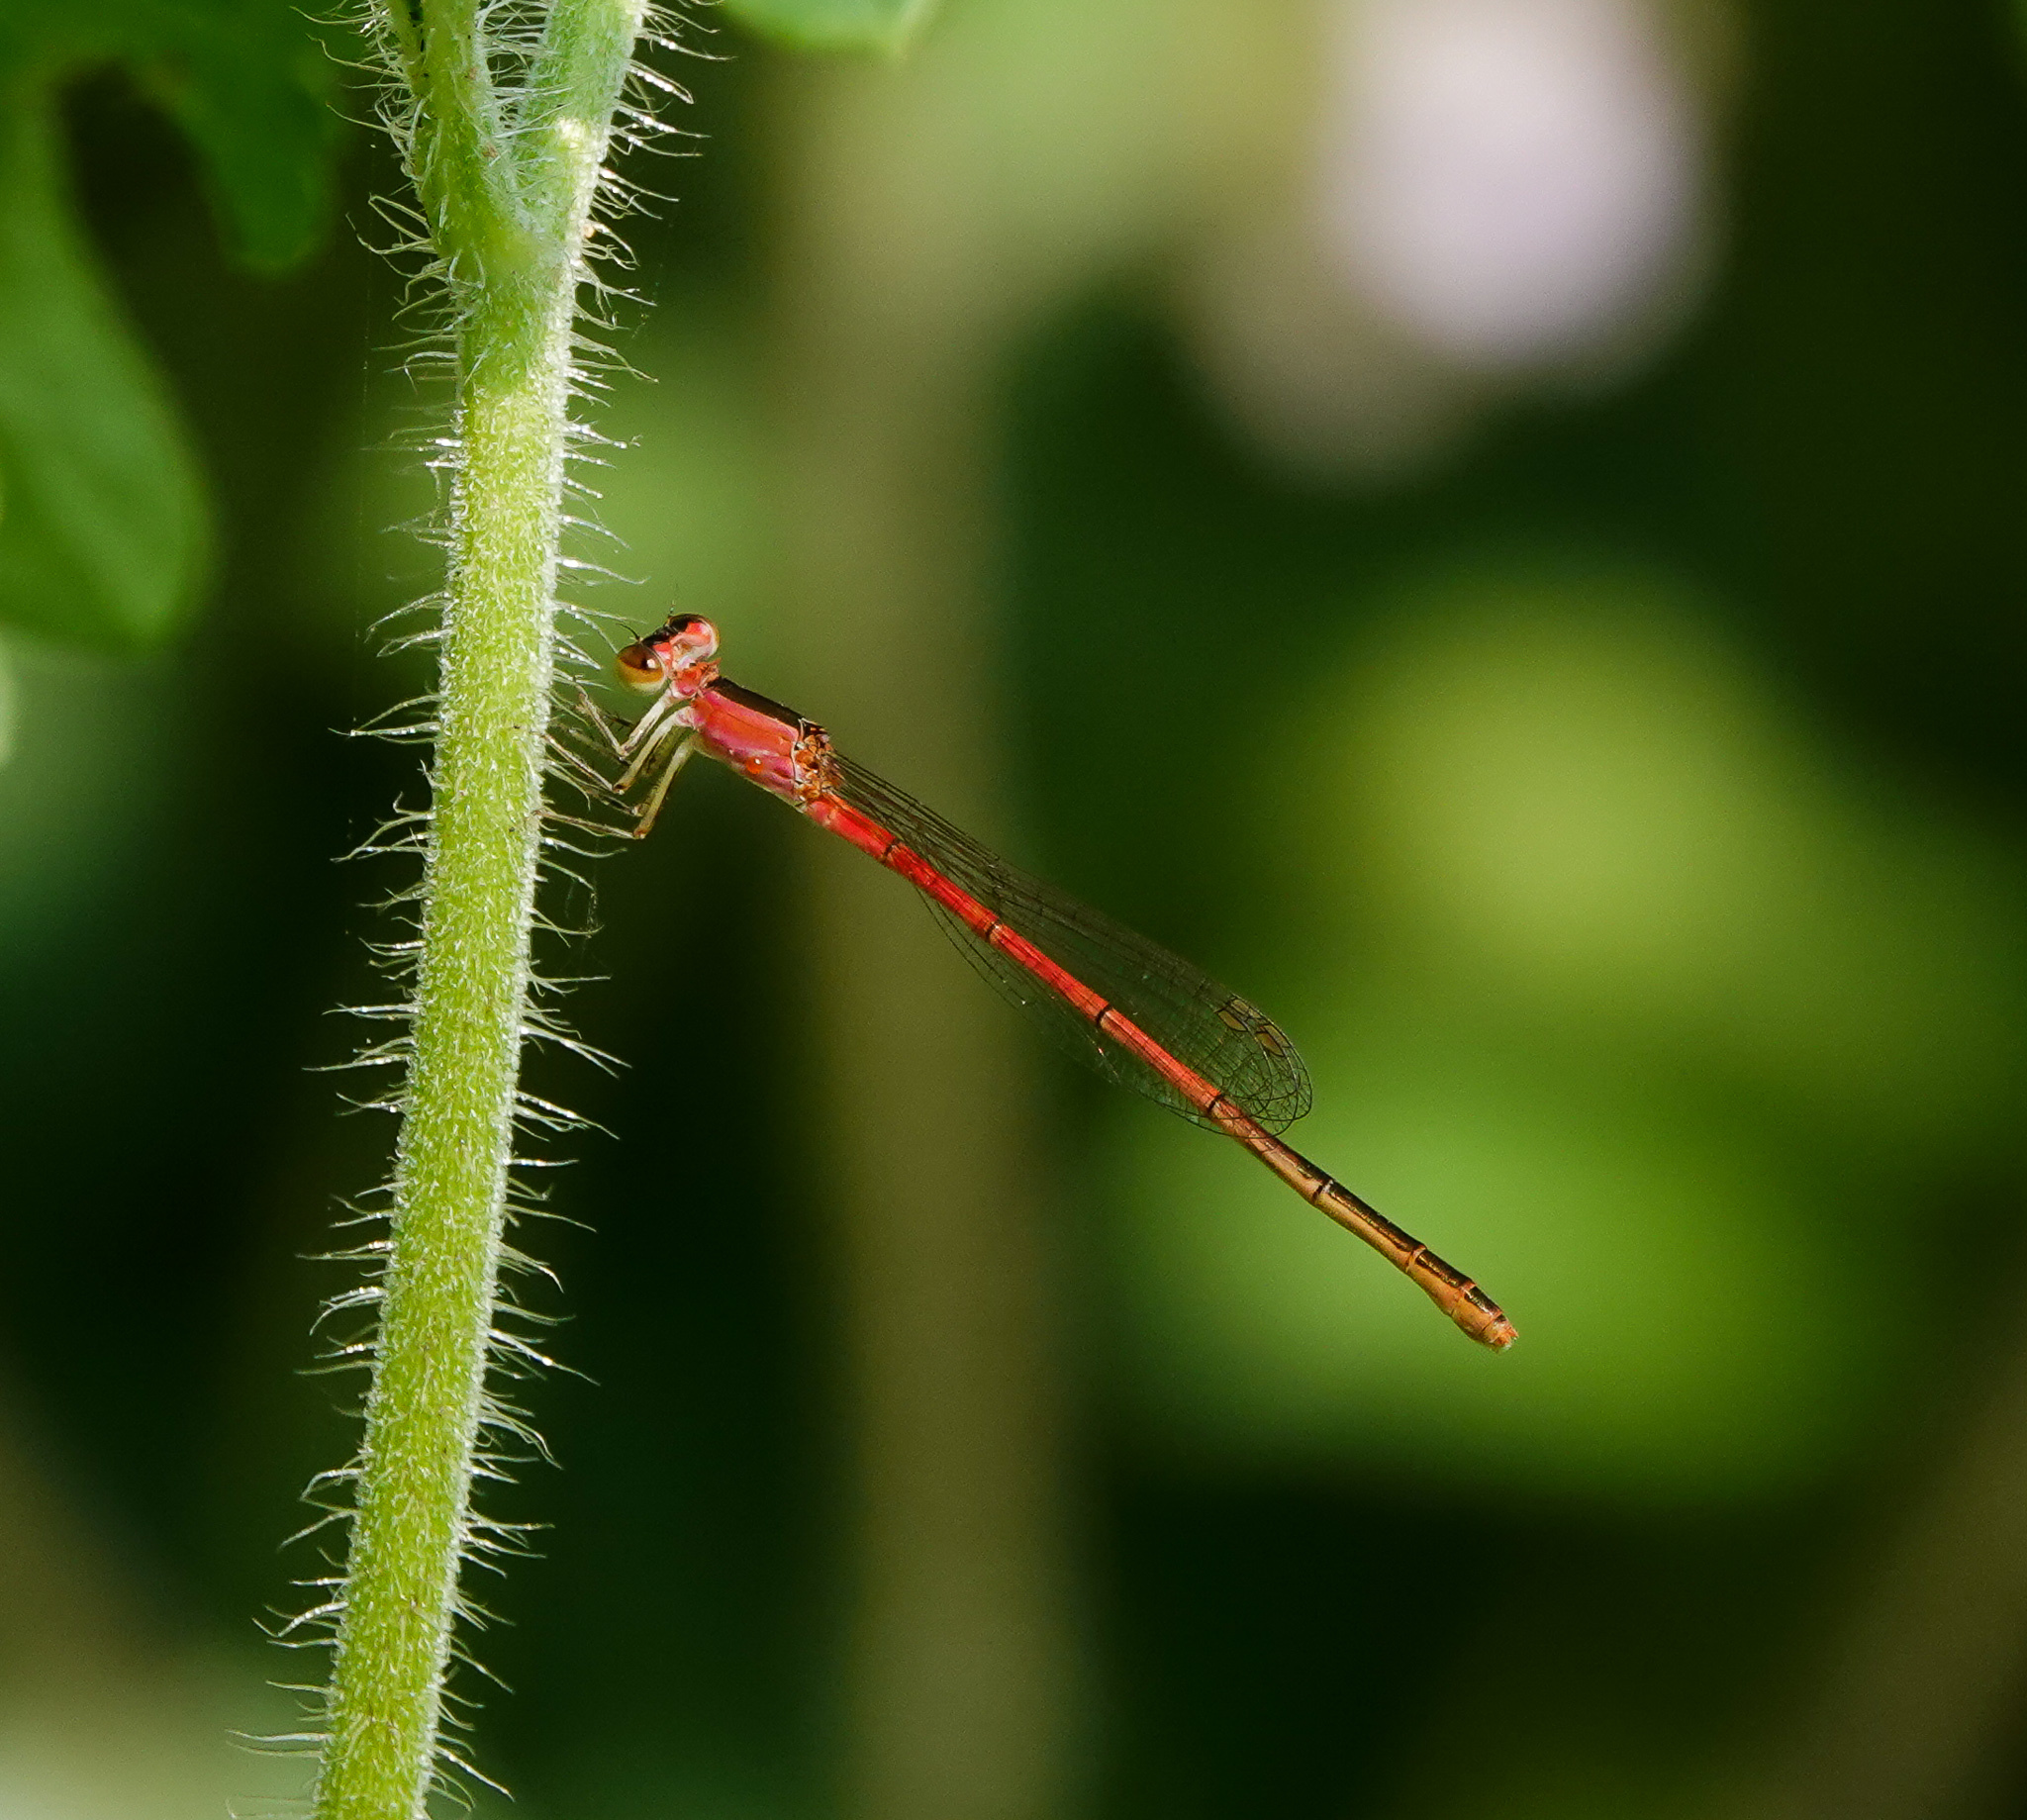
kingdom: Animalia
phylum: Arthropoda
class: Insecta
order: Odonata
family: Coenagrionidae
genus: Agriocnemis
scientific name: Agriocnemis femina
